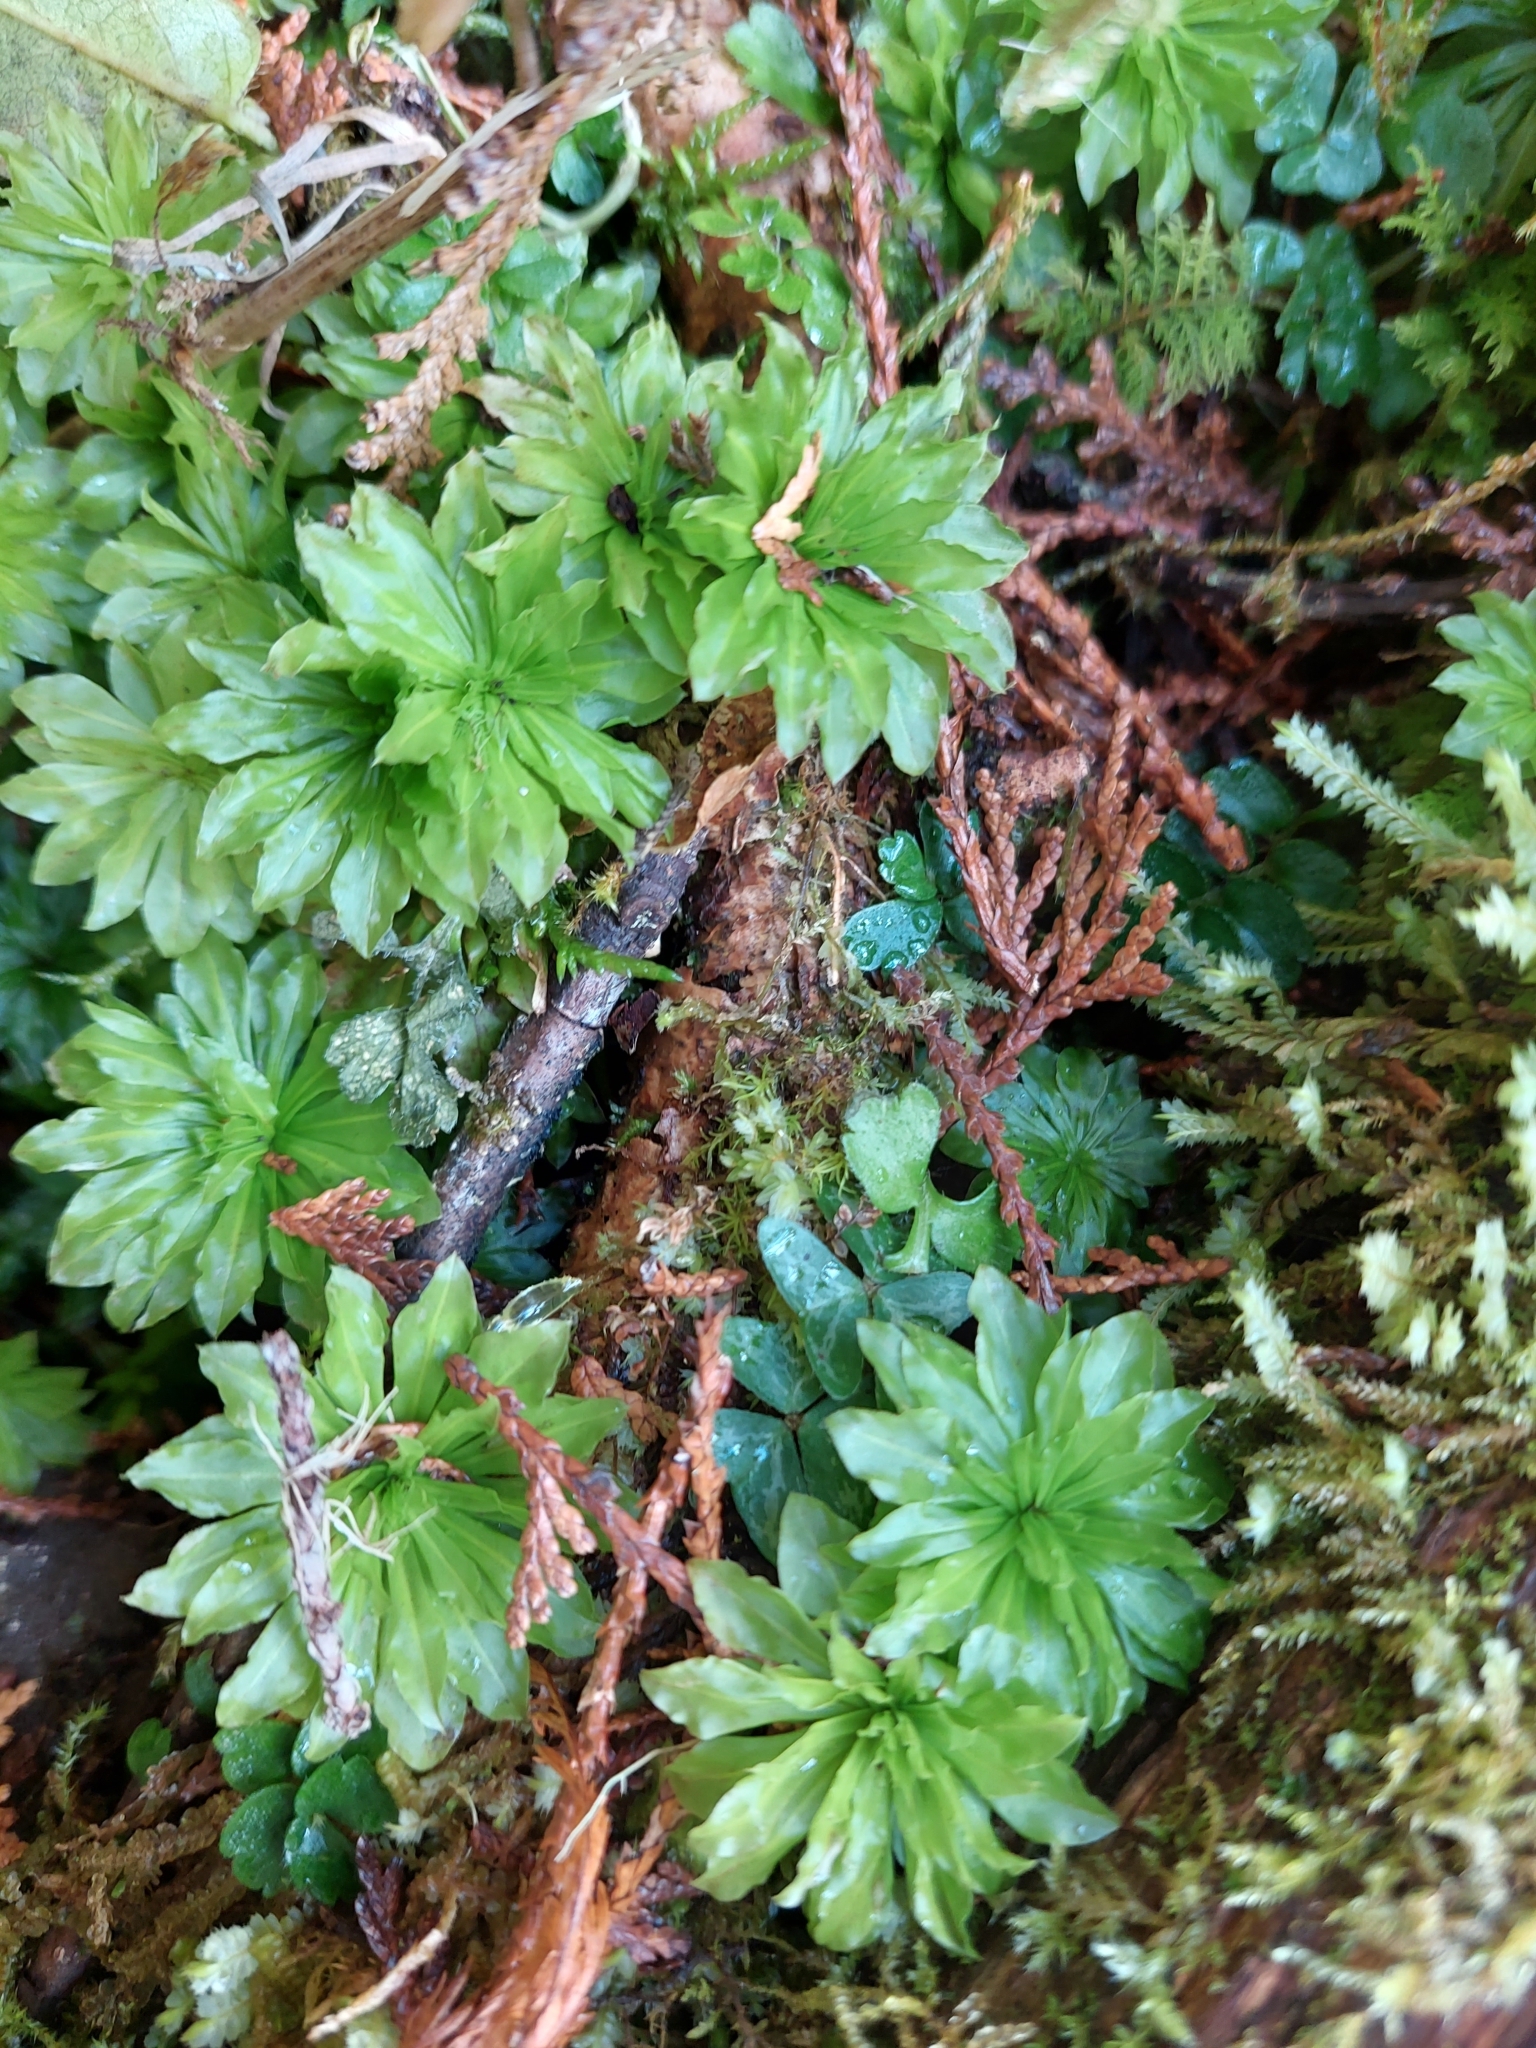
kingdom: Plantae
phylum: Bryophyta
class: Bryopsida
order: Bryales
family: Bryaceae
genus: Rhodobryum
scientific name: Rhodobryum giganteum
